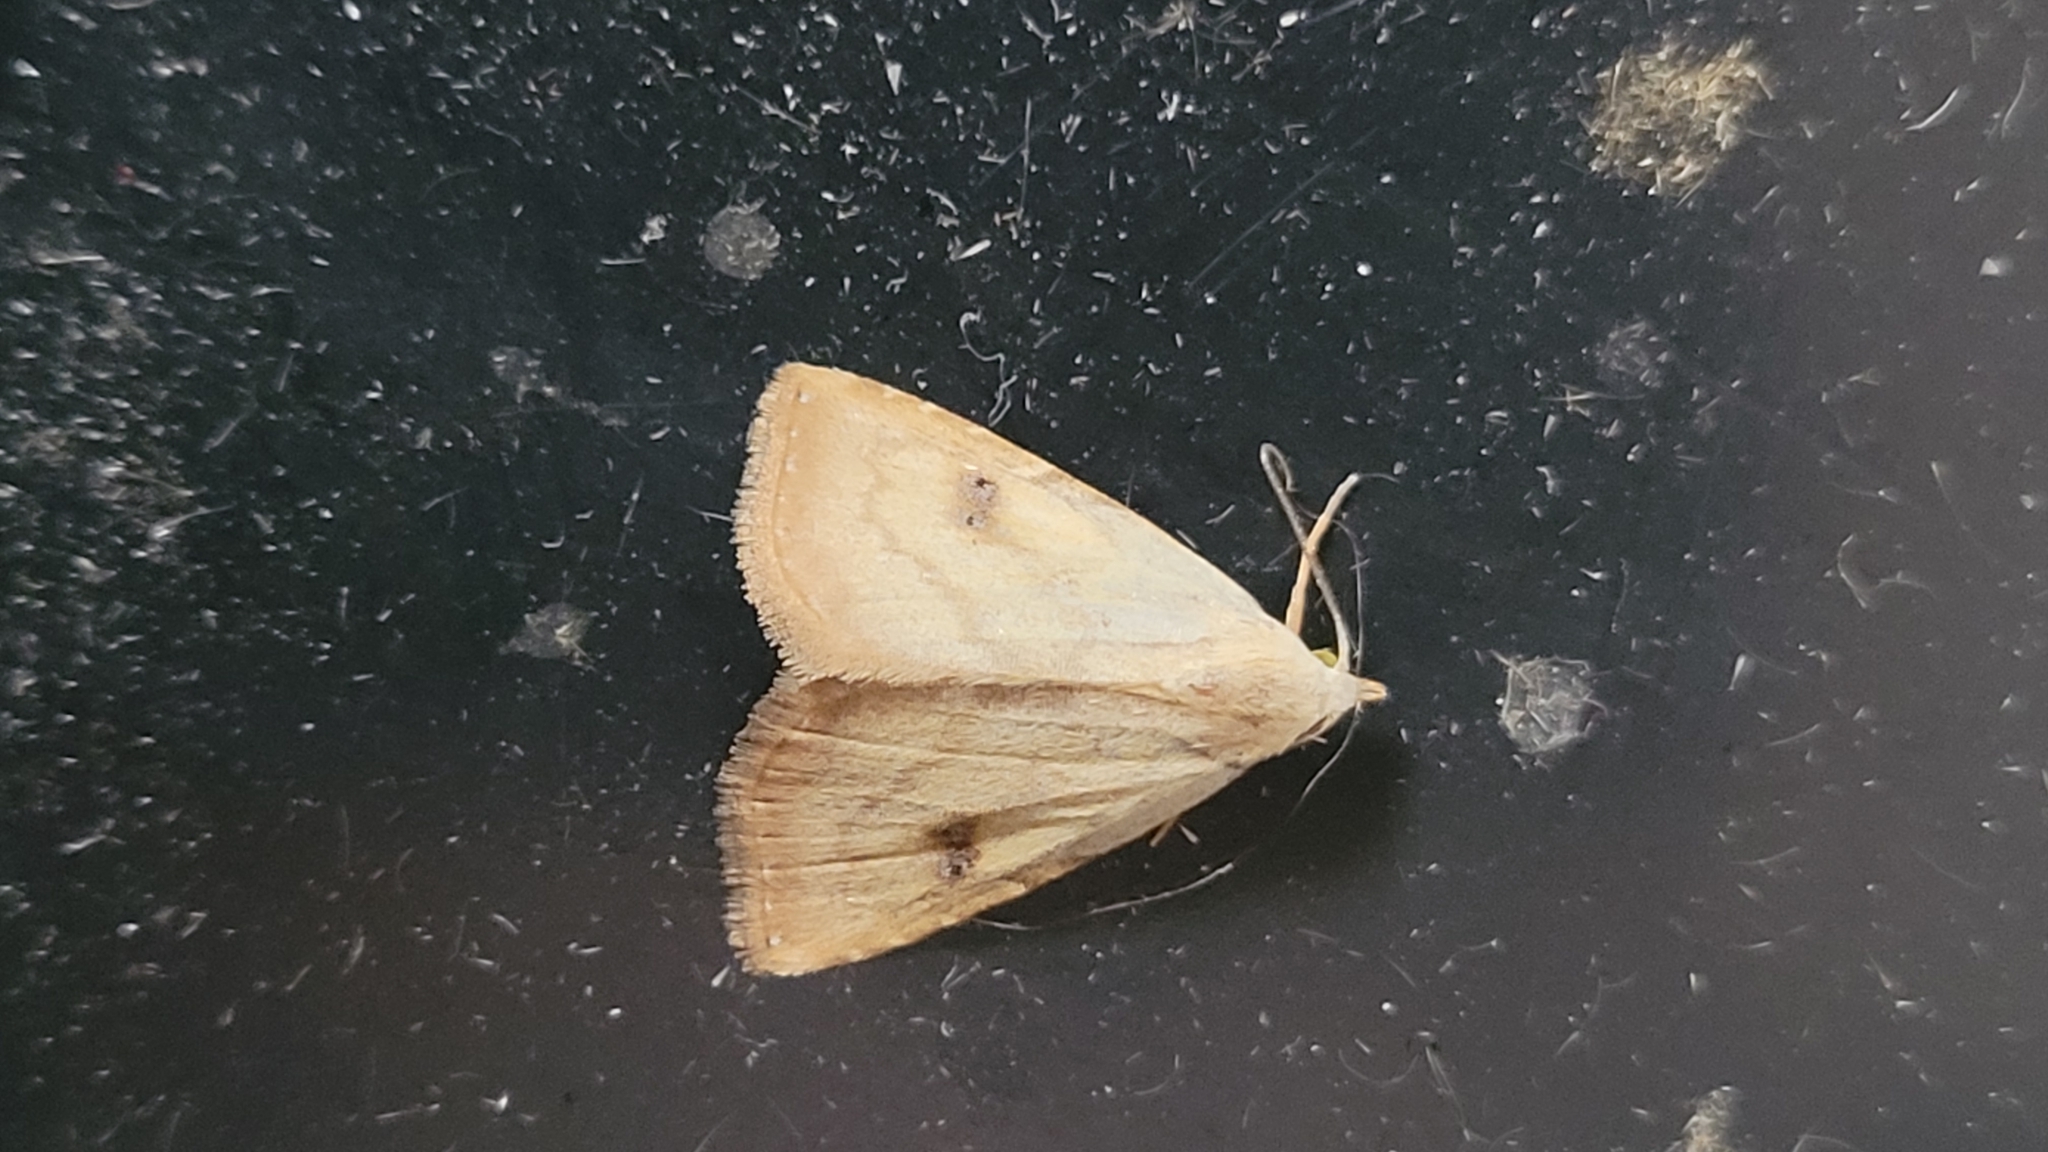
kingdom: Animalia
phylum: Arthropoda
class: Insecta
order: Lepidoptera
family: Erebidae
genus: Rivula
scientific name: Rivula sericealis
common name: Straw dot
